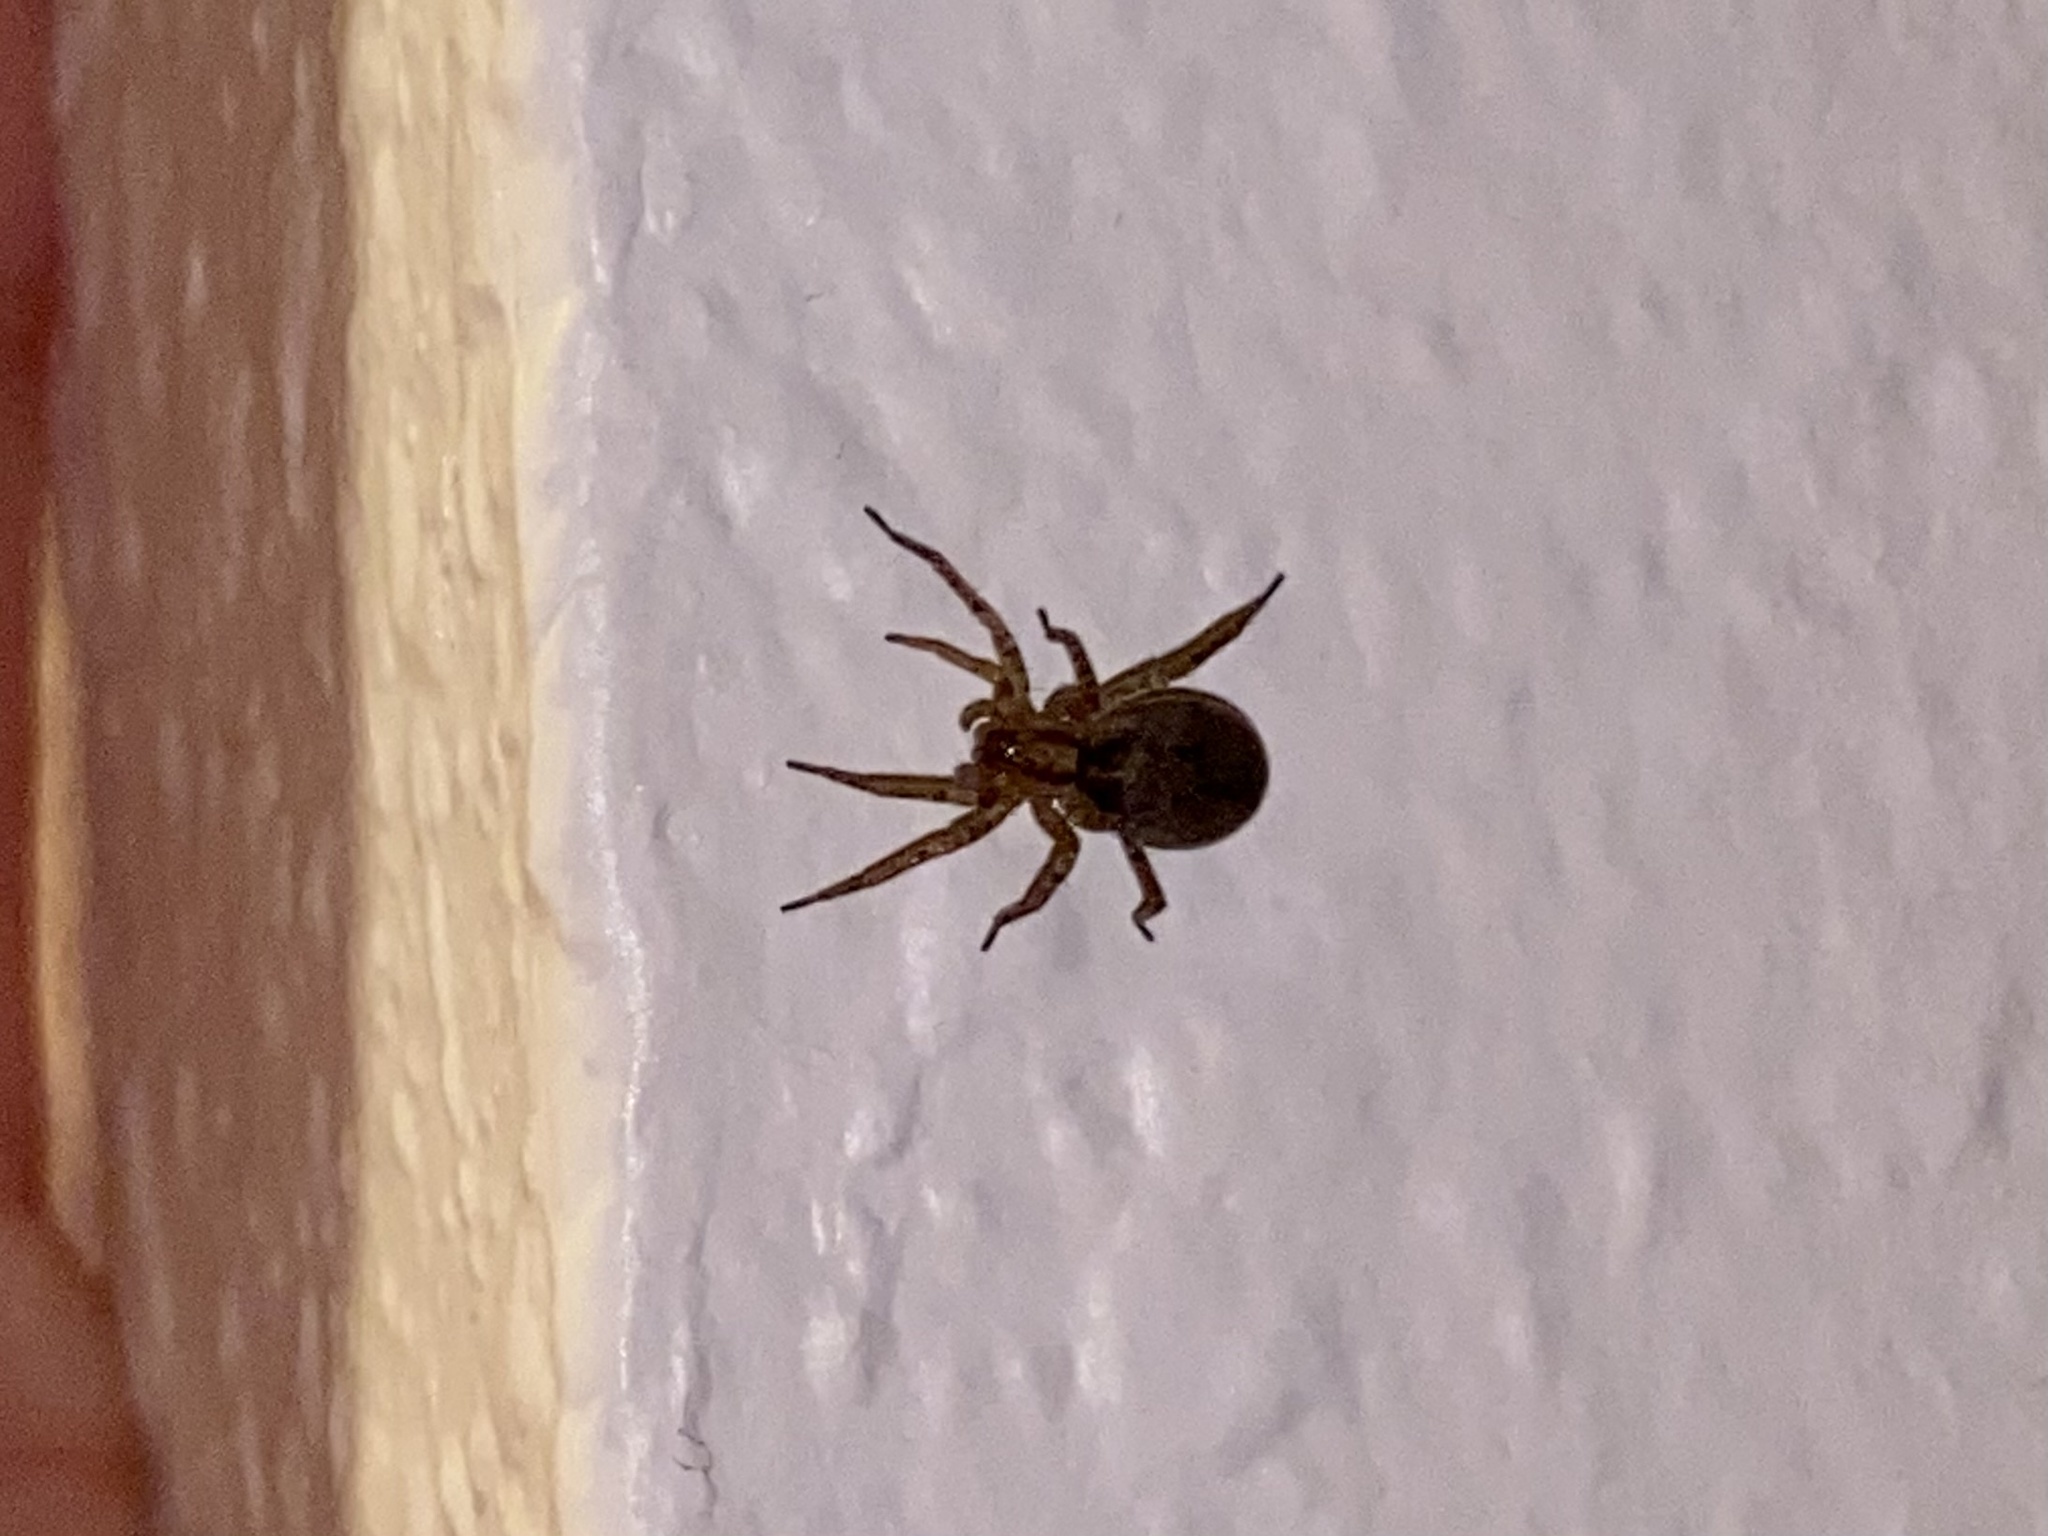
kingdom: Animalia
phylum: Arthropoda
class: Arachnida
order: Araneae
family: Anyphaenidae
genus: Anyphaena
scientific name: Anyphaena
